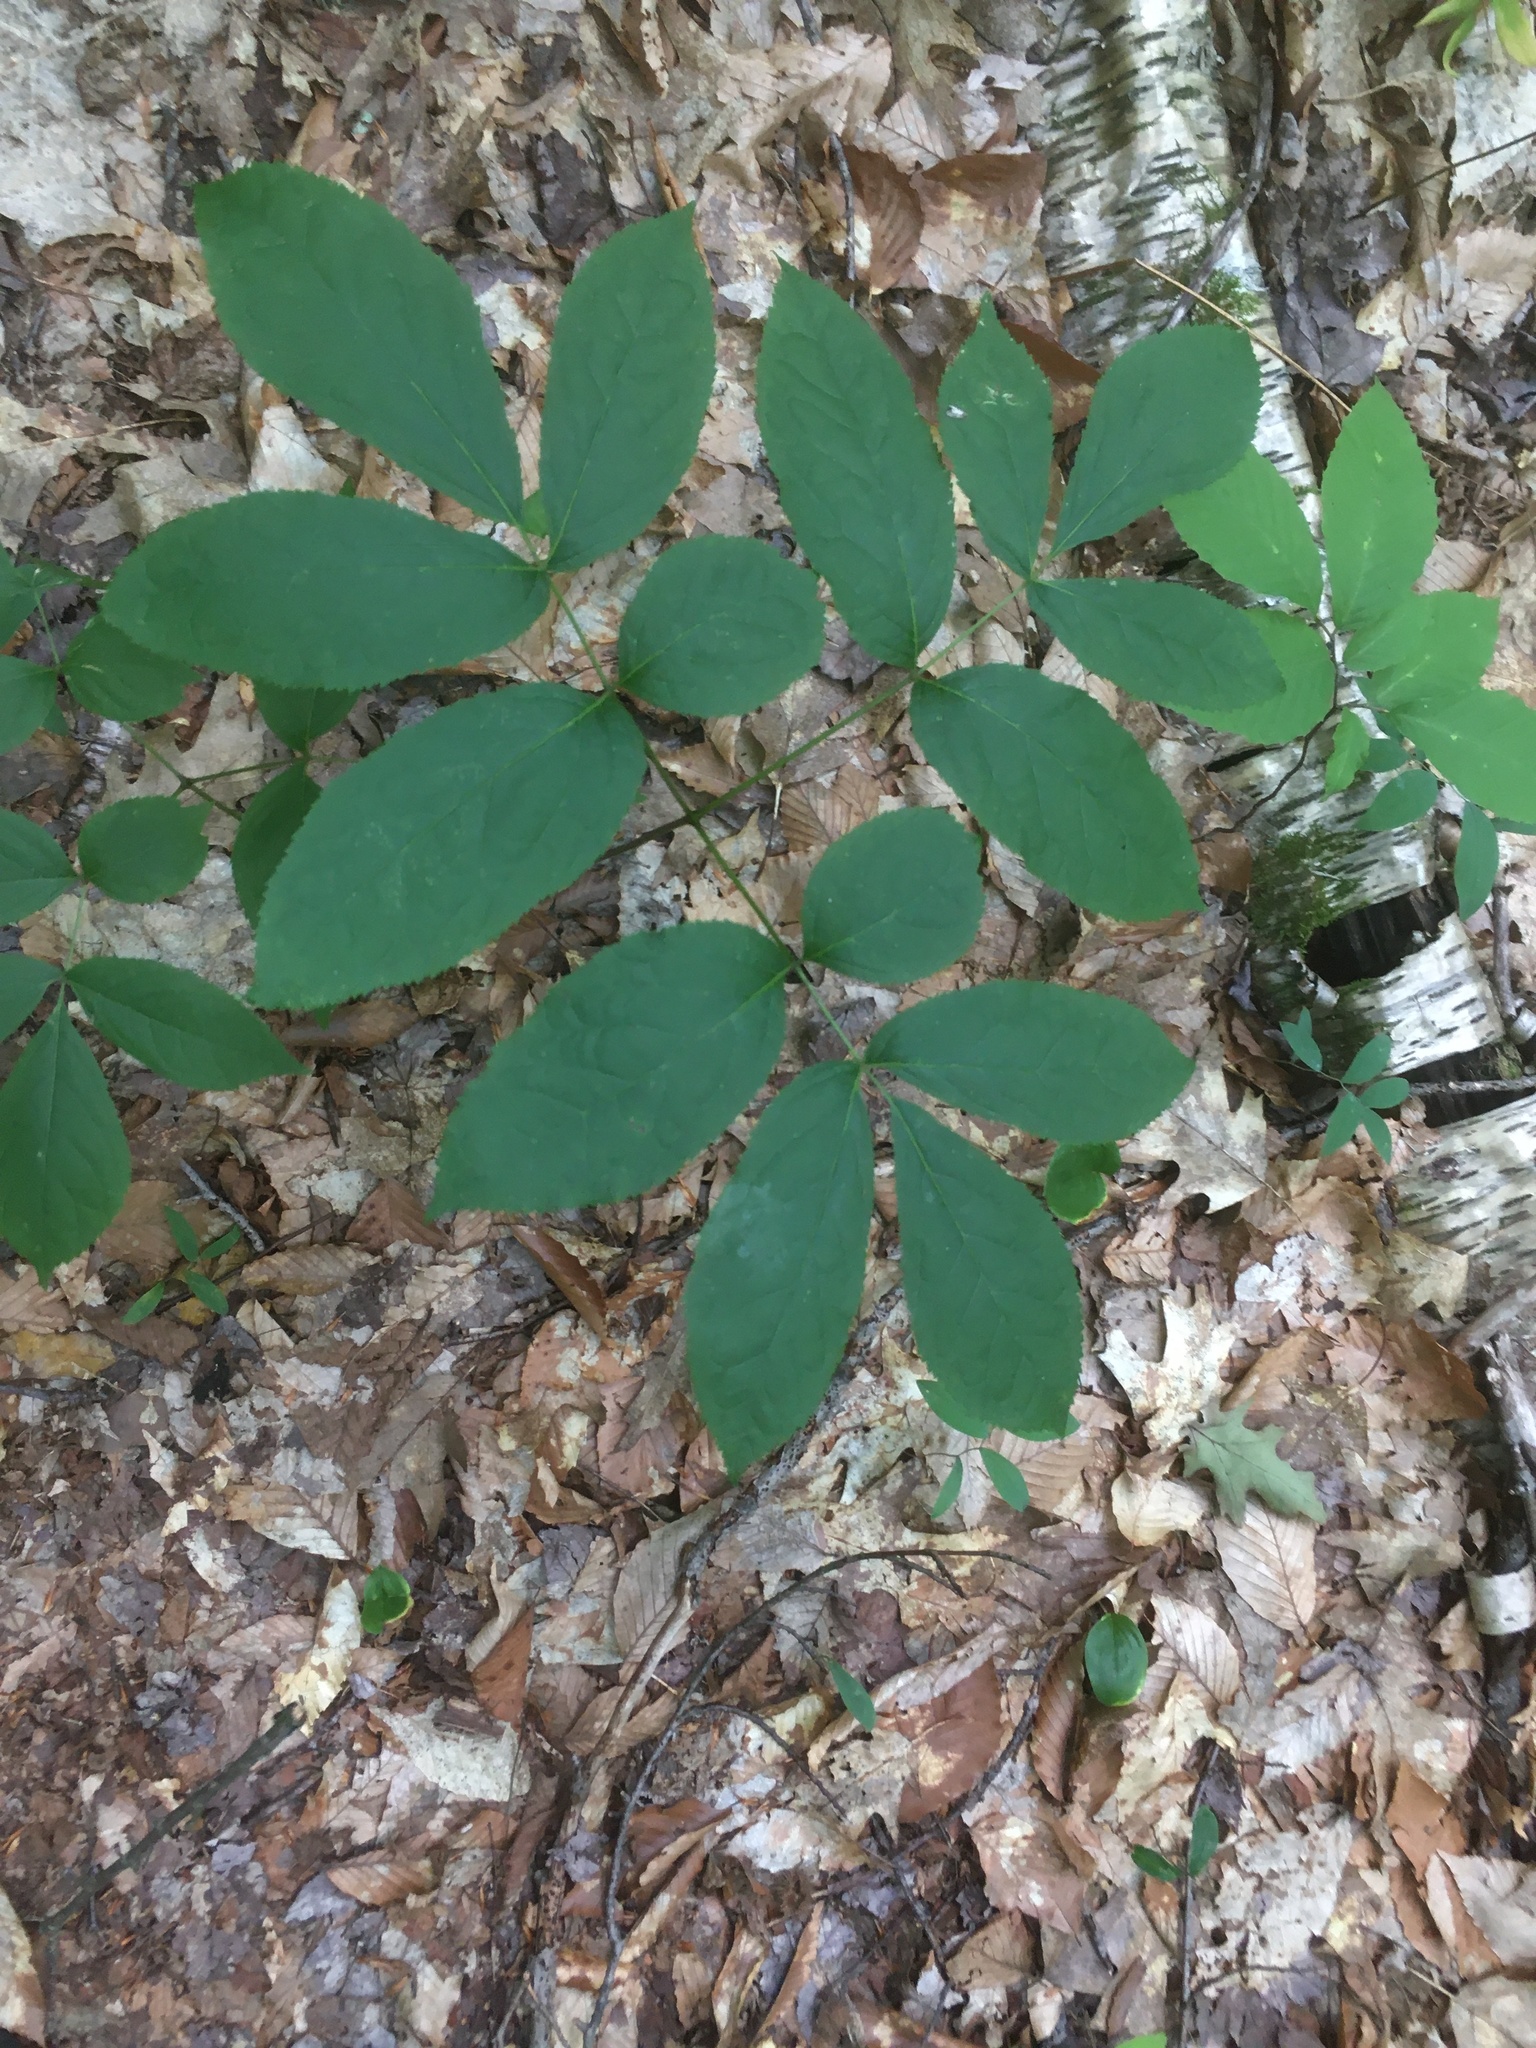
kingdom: Plantae
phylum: Tracheophyta
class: Magnoliopsida
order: Apiales
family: Araliaceae
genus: Aralia
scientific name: Aralia nudicaulis
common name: Wild sarsaparilla
